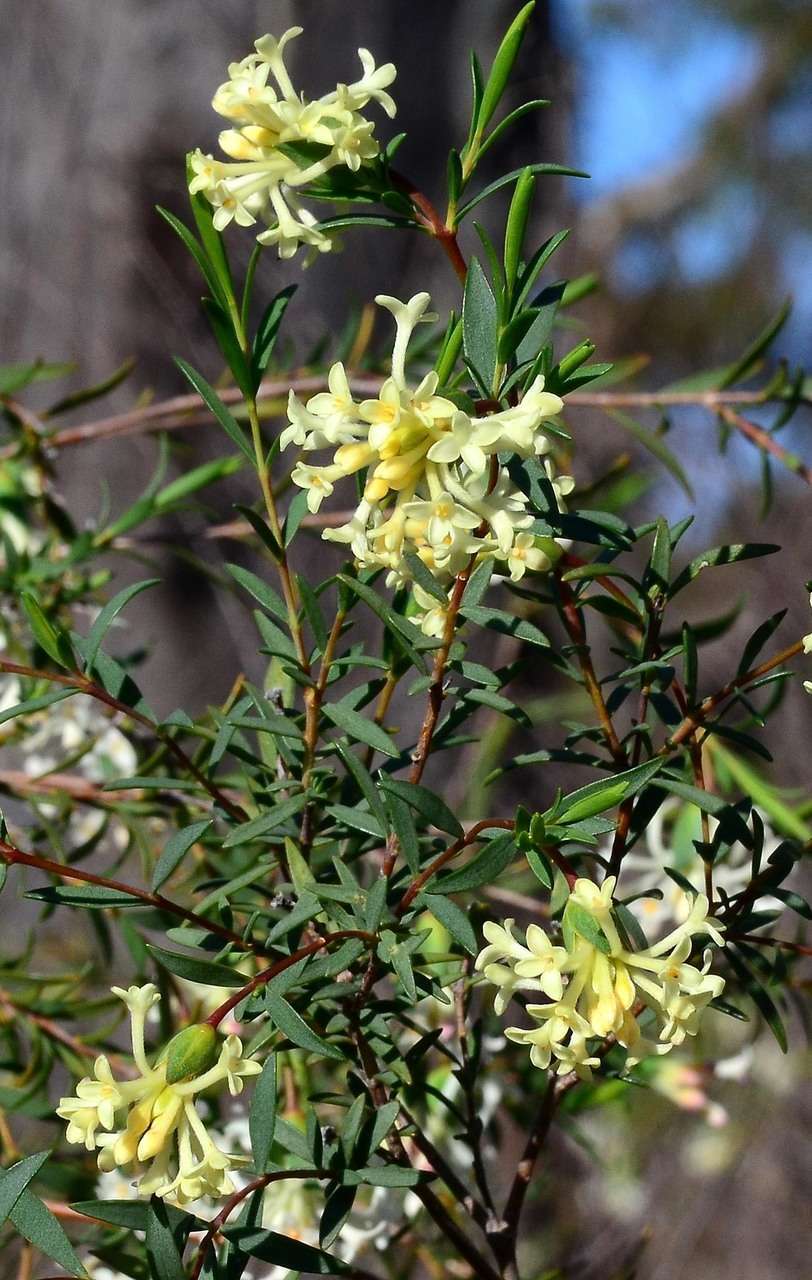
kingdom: Plantae
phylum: Tracheophyta
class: Magnoliopsida
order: Malvales
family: Thymelaeaceae
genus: Pimelea
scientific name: Pimelea stricta
